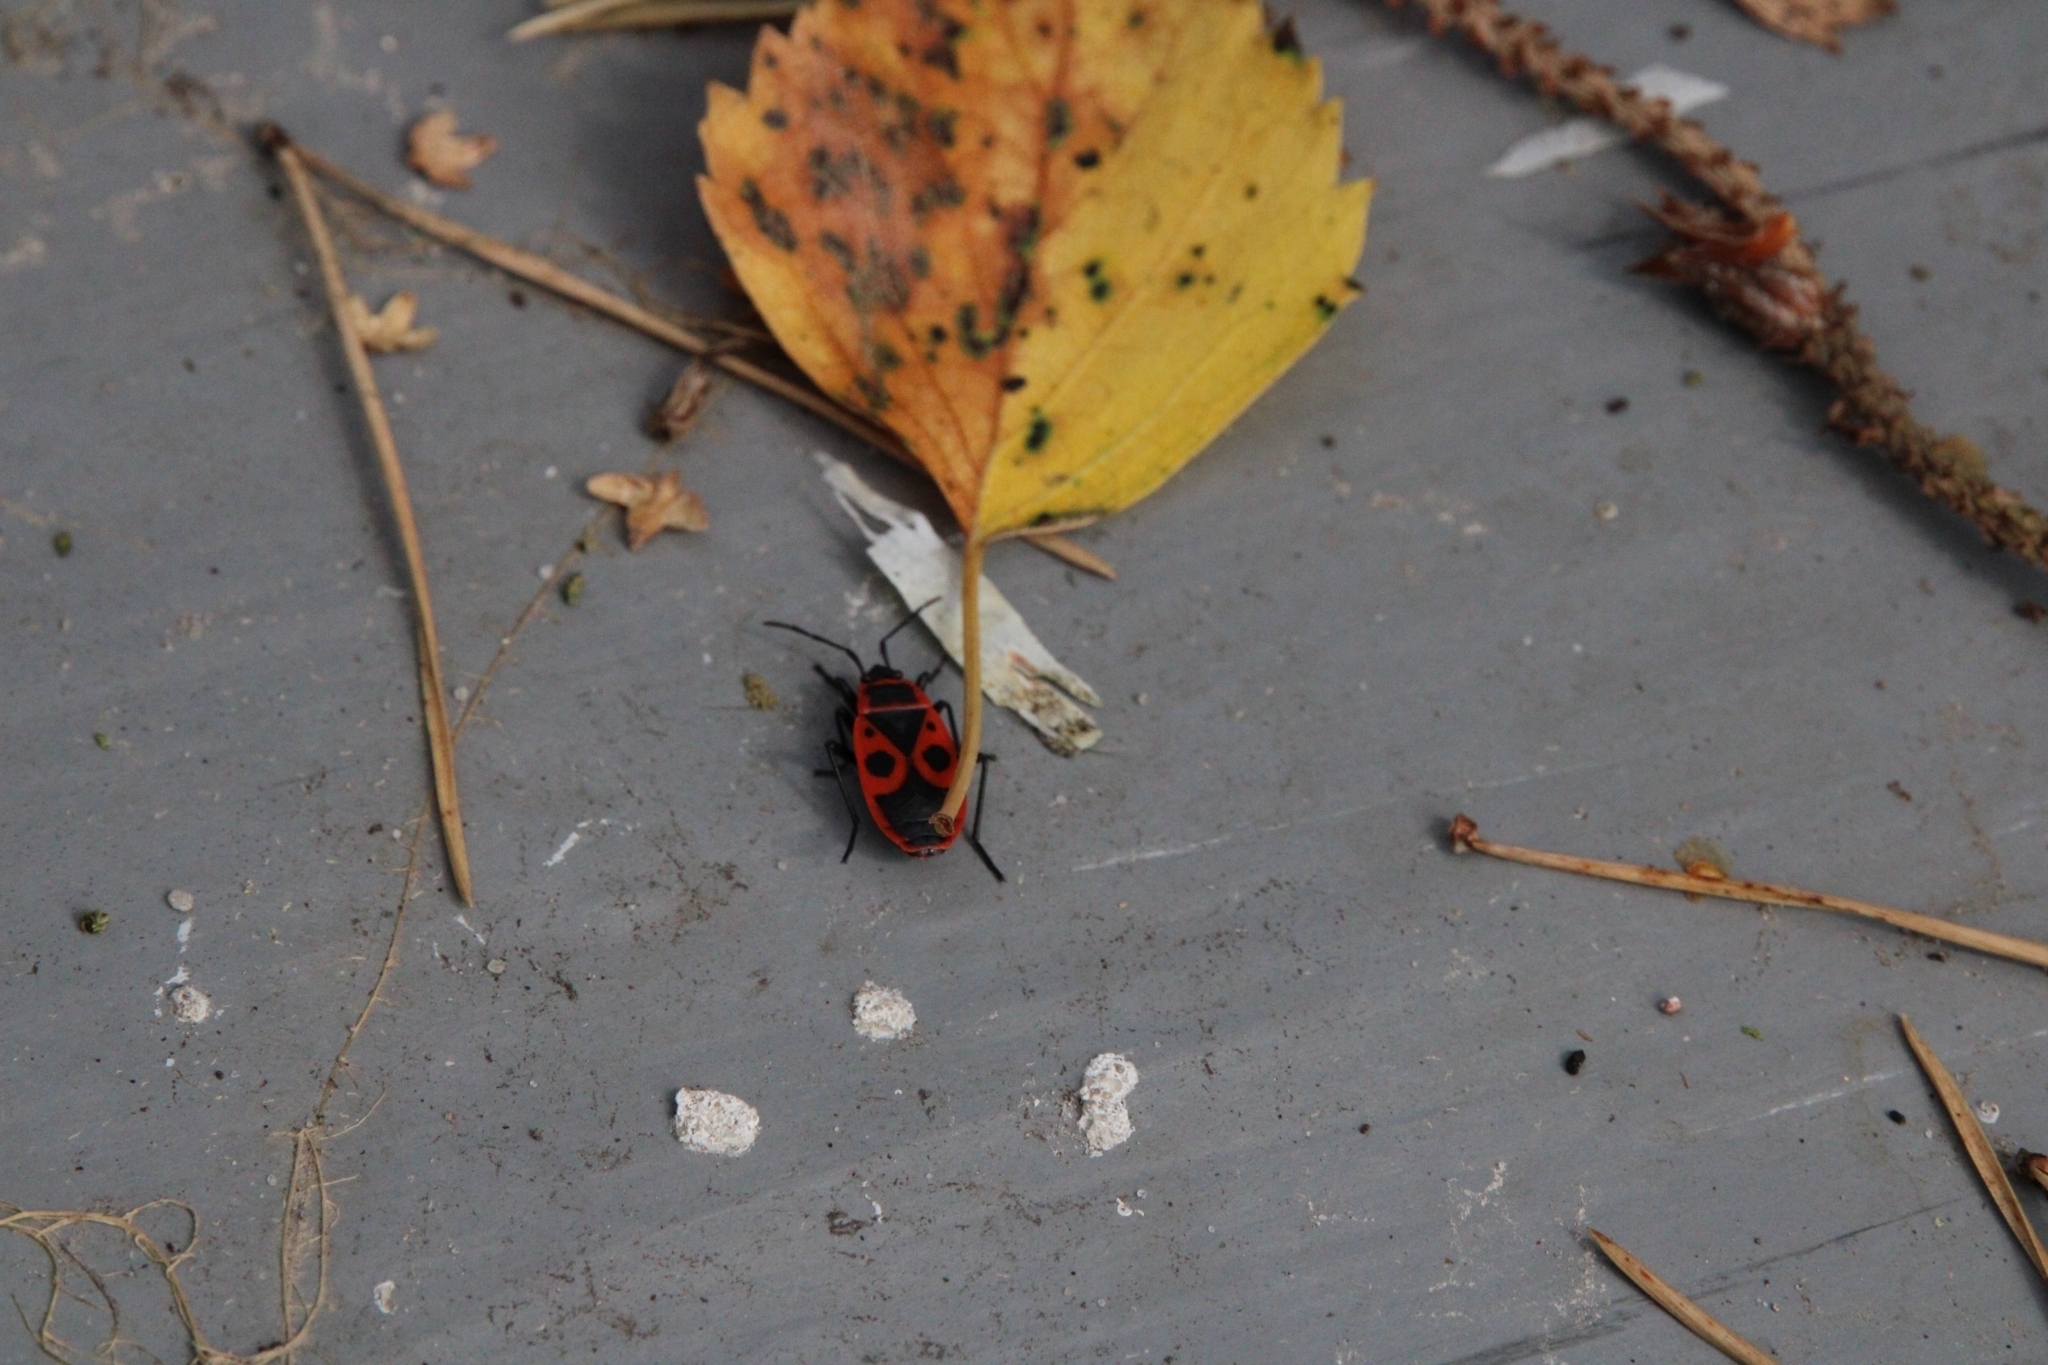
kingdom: Animalia
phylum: Arthropoda
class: Insecta
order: Hemiptera
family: Pyrrhocoridae
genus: Pyrrhocoris
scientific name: Pyrrhocoris apterus
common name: Firebug
